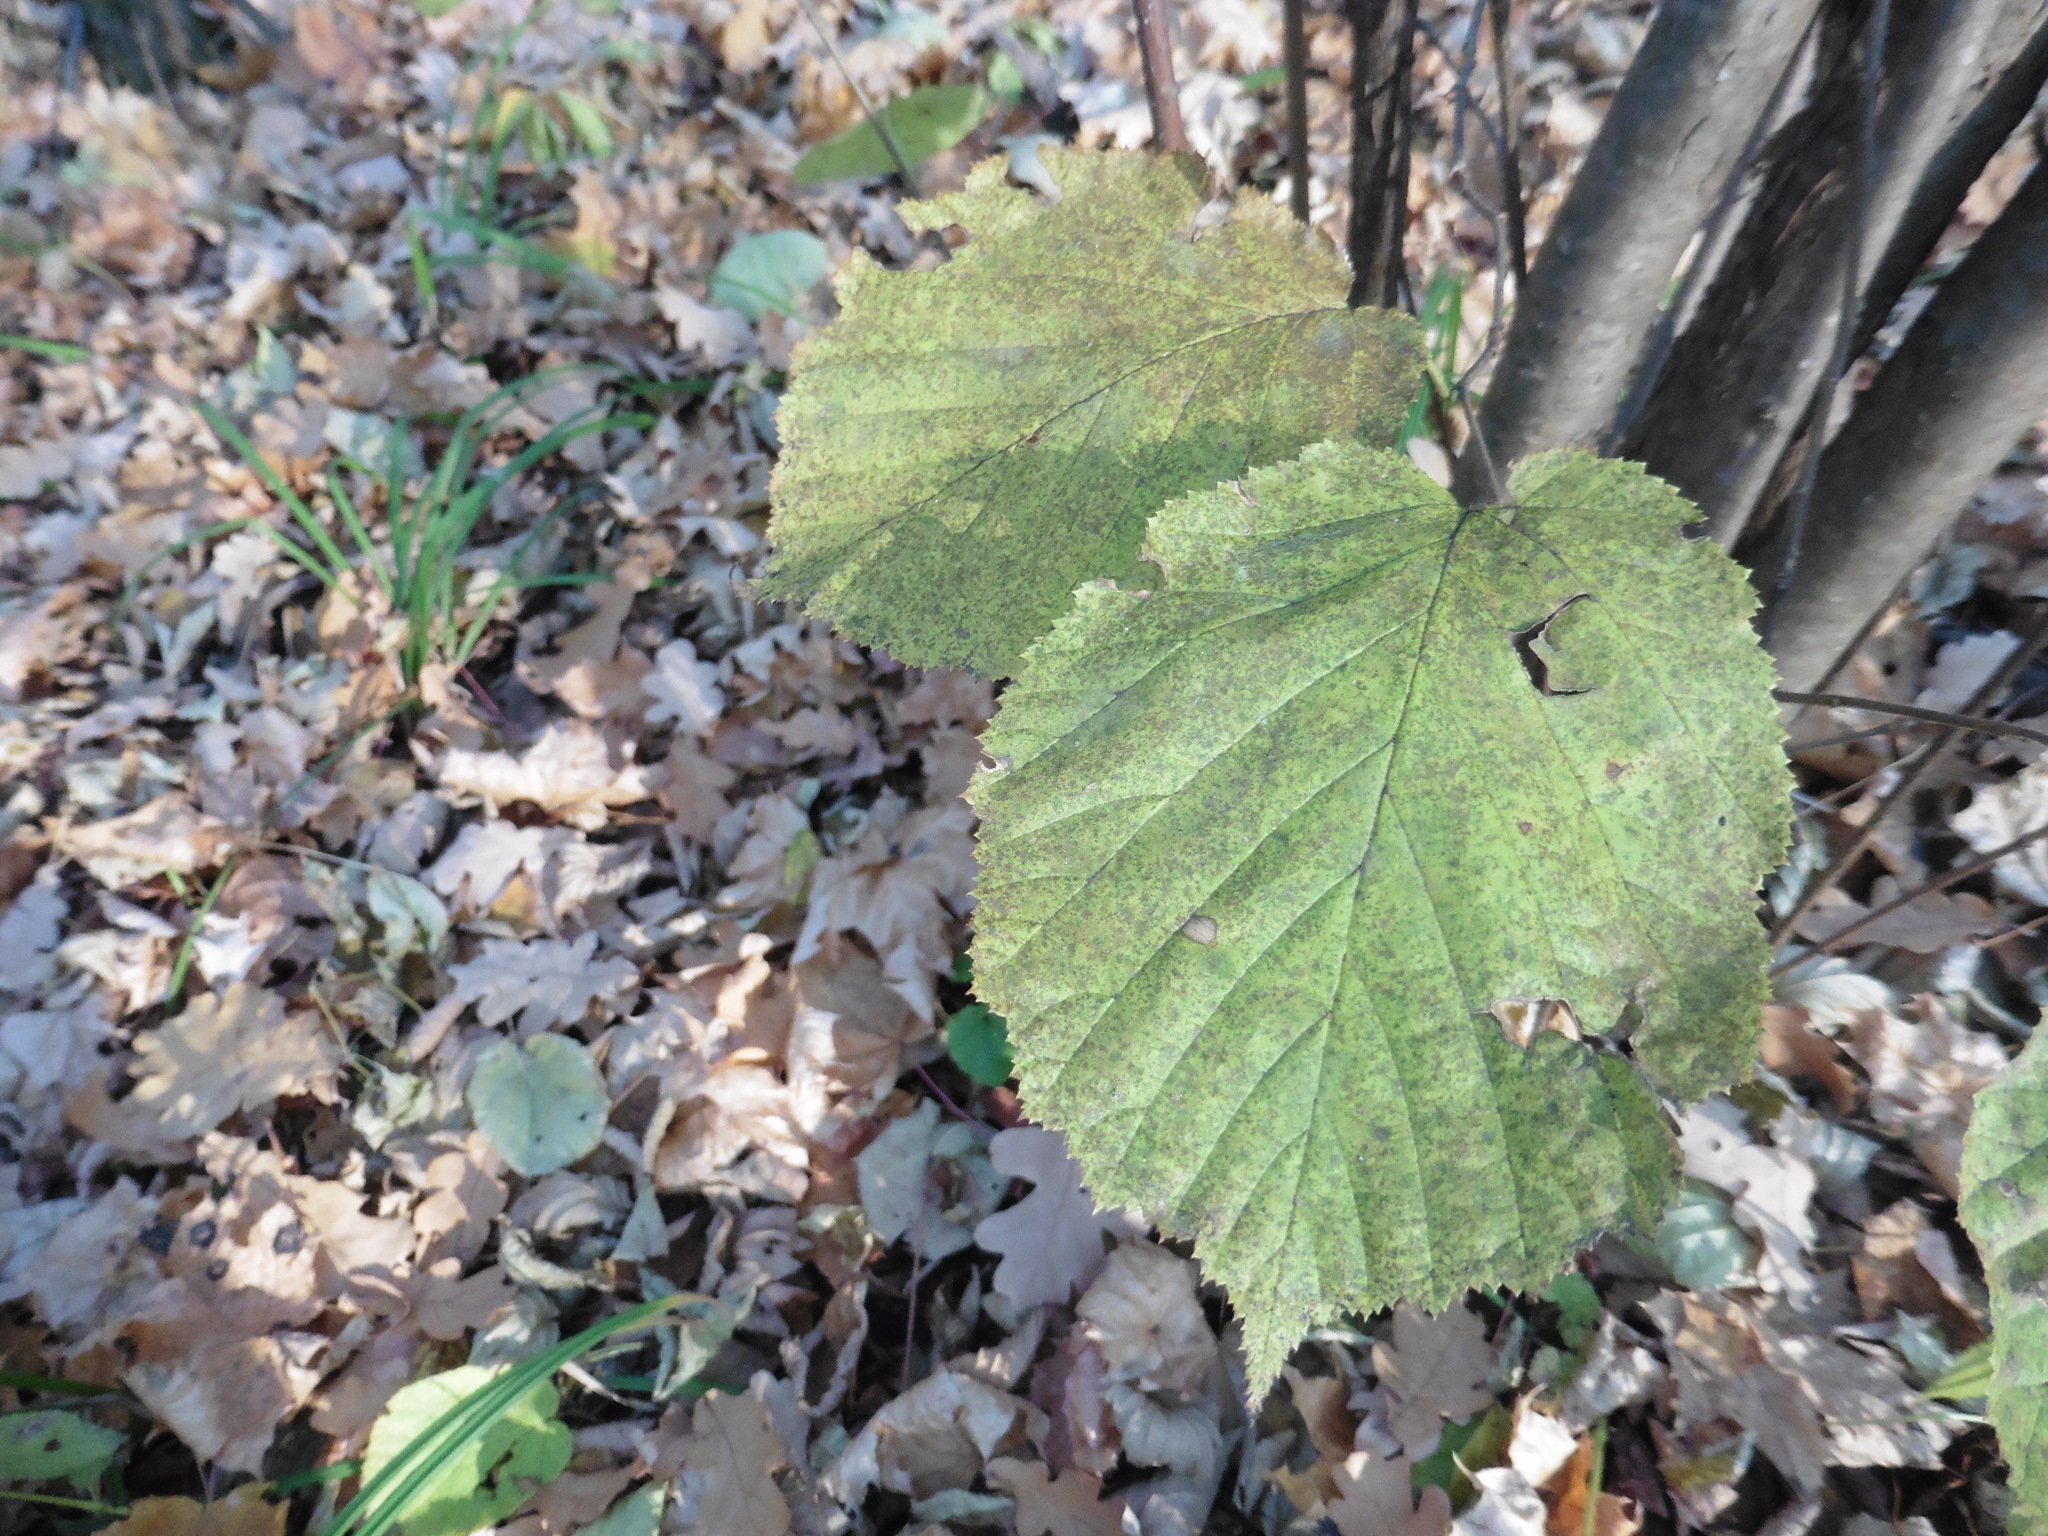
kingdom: Plantae
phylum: Tracheophyta
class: Magnoliopsida
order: Fagales
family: Betulaceae
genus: Corylus
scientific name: Corylus avellana
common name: European hazel
